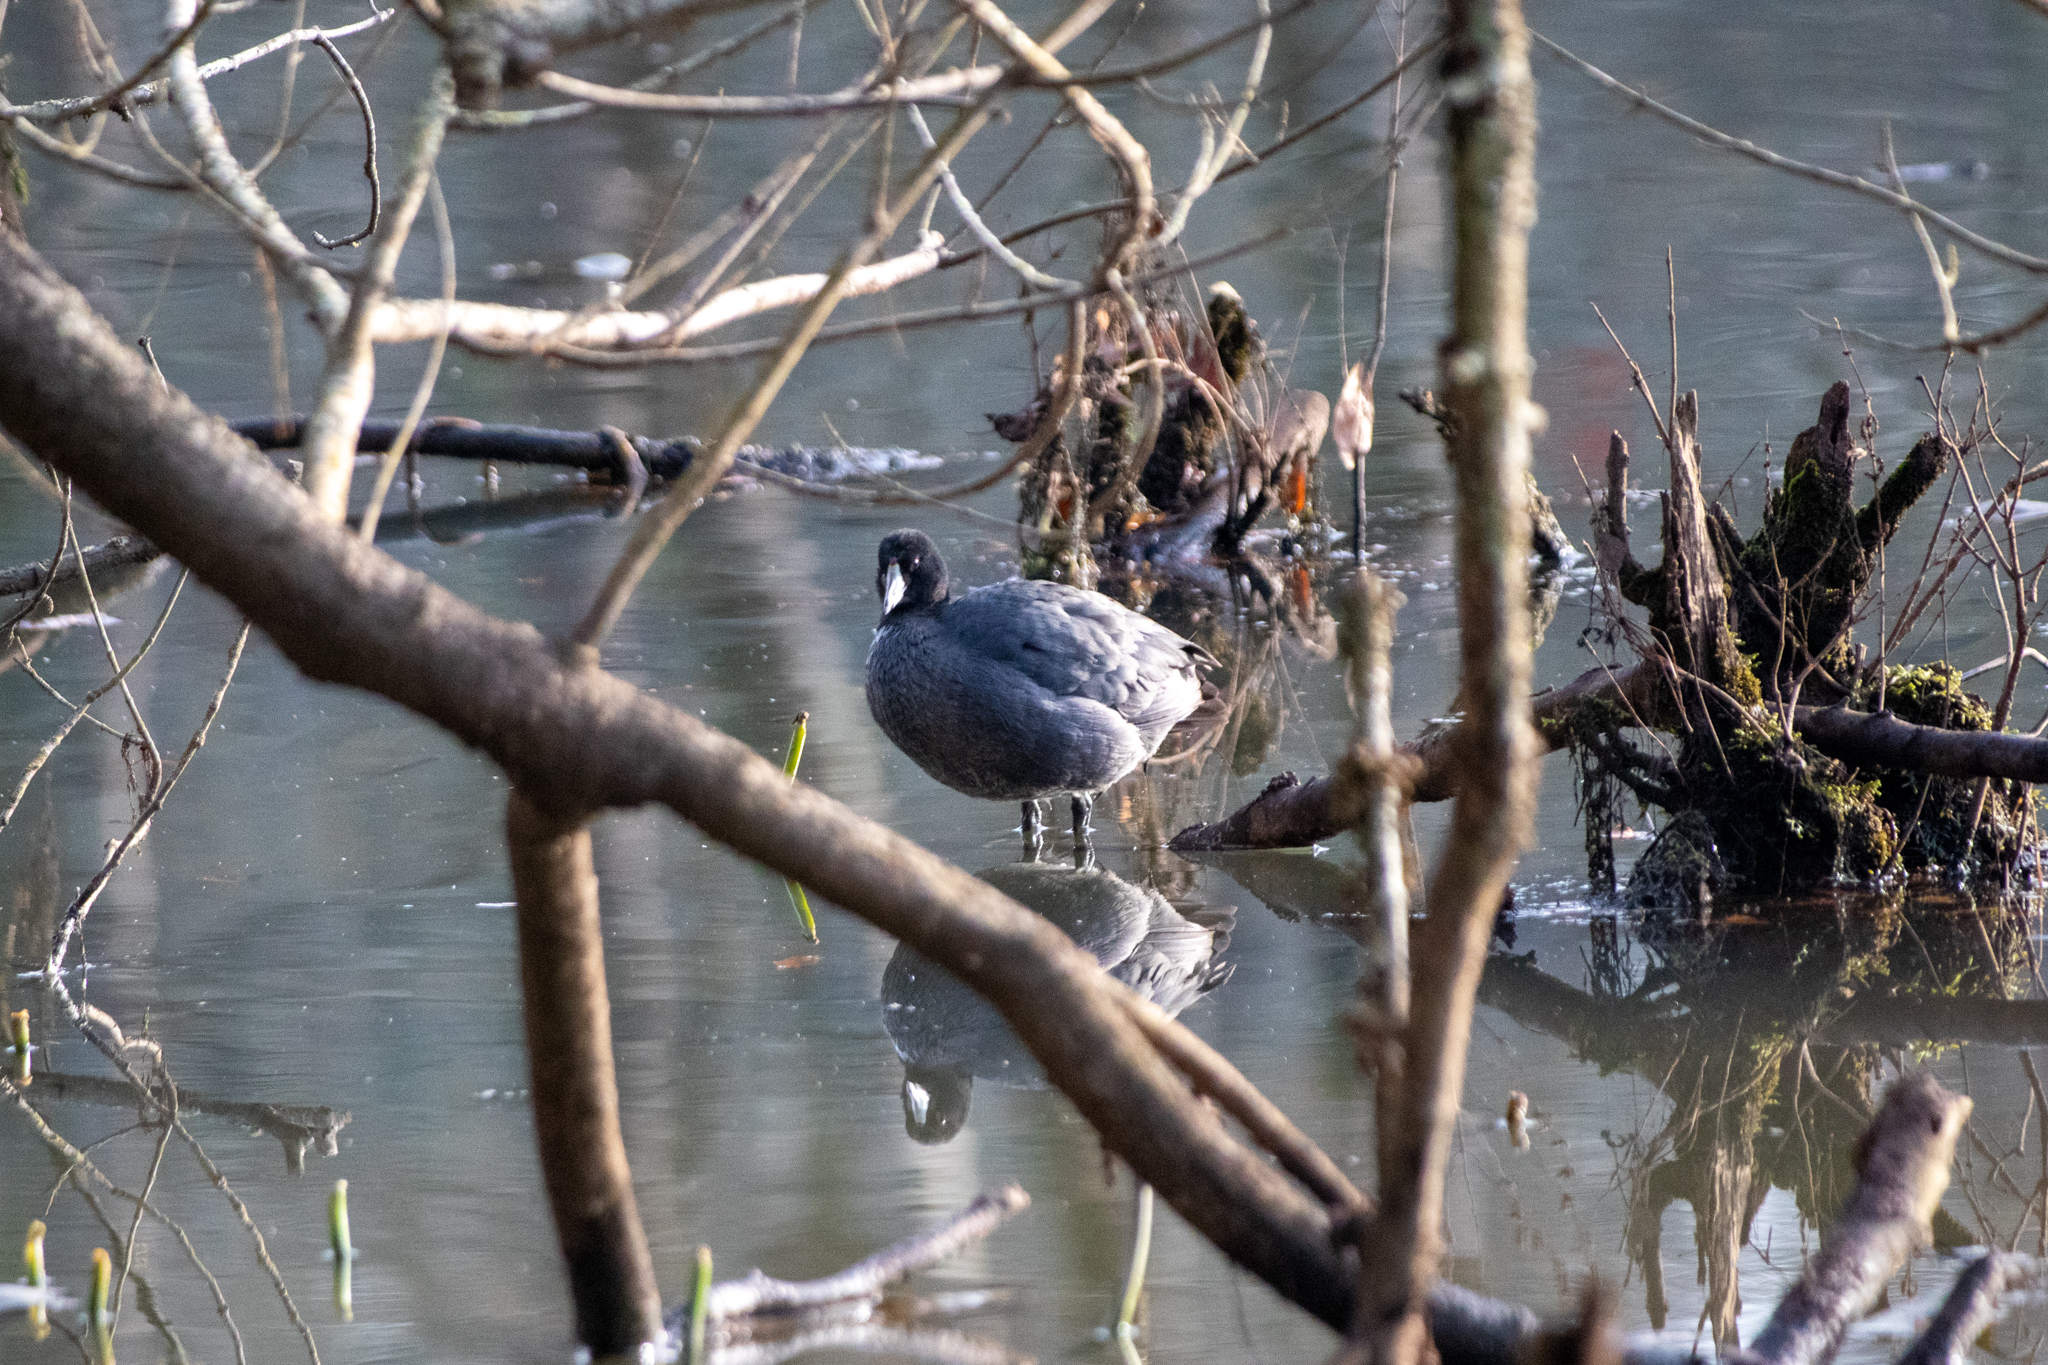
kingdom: Animalia
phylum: Chordata
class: Aves
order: Gruiformes
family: Rallidae
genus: Fulica
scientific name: Fulica americana
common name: American coot
